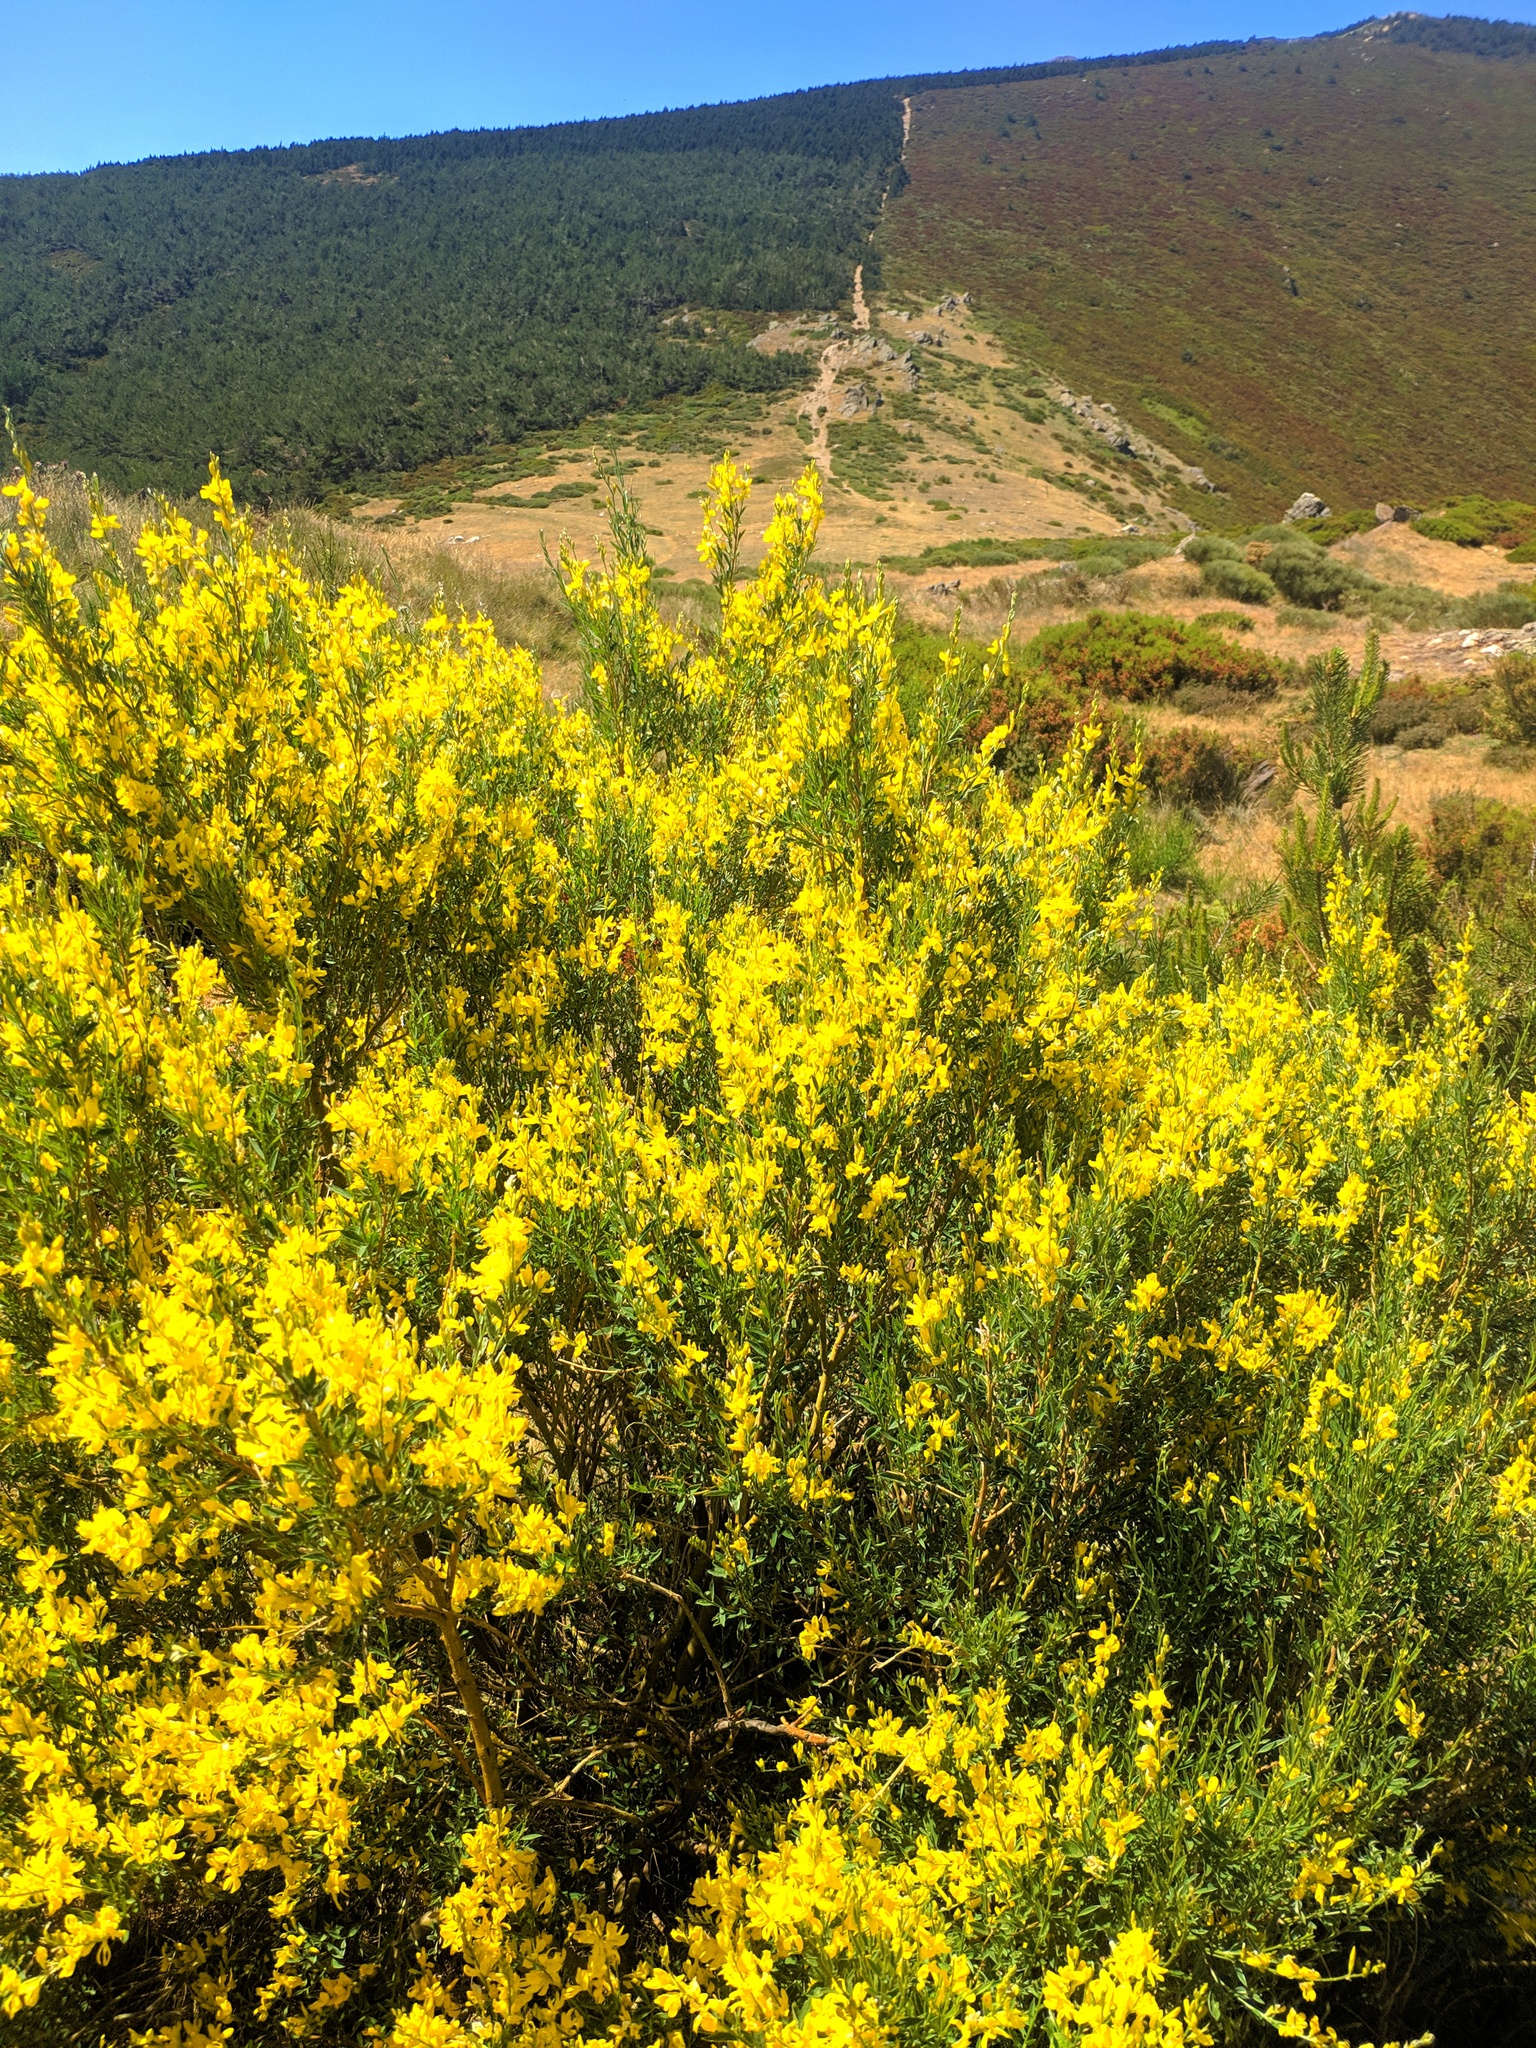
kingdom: Plantae
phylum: Tracheophyta
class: Magnoliopsida
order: Fabales
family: Fabaceae
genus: Genista
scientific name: Genista florida
